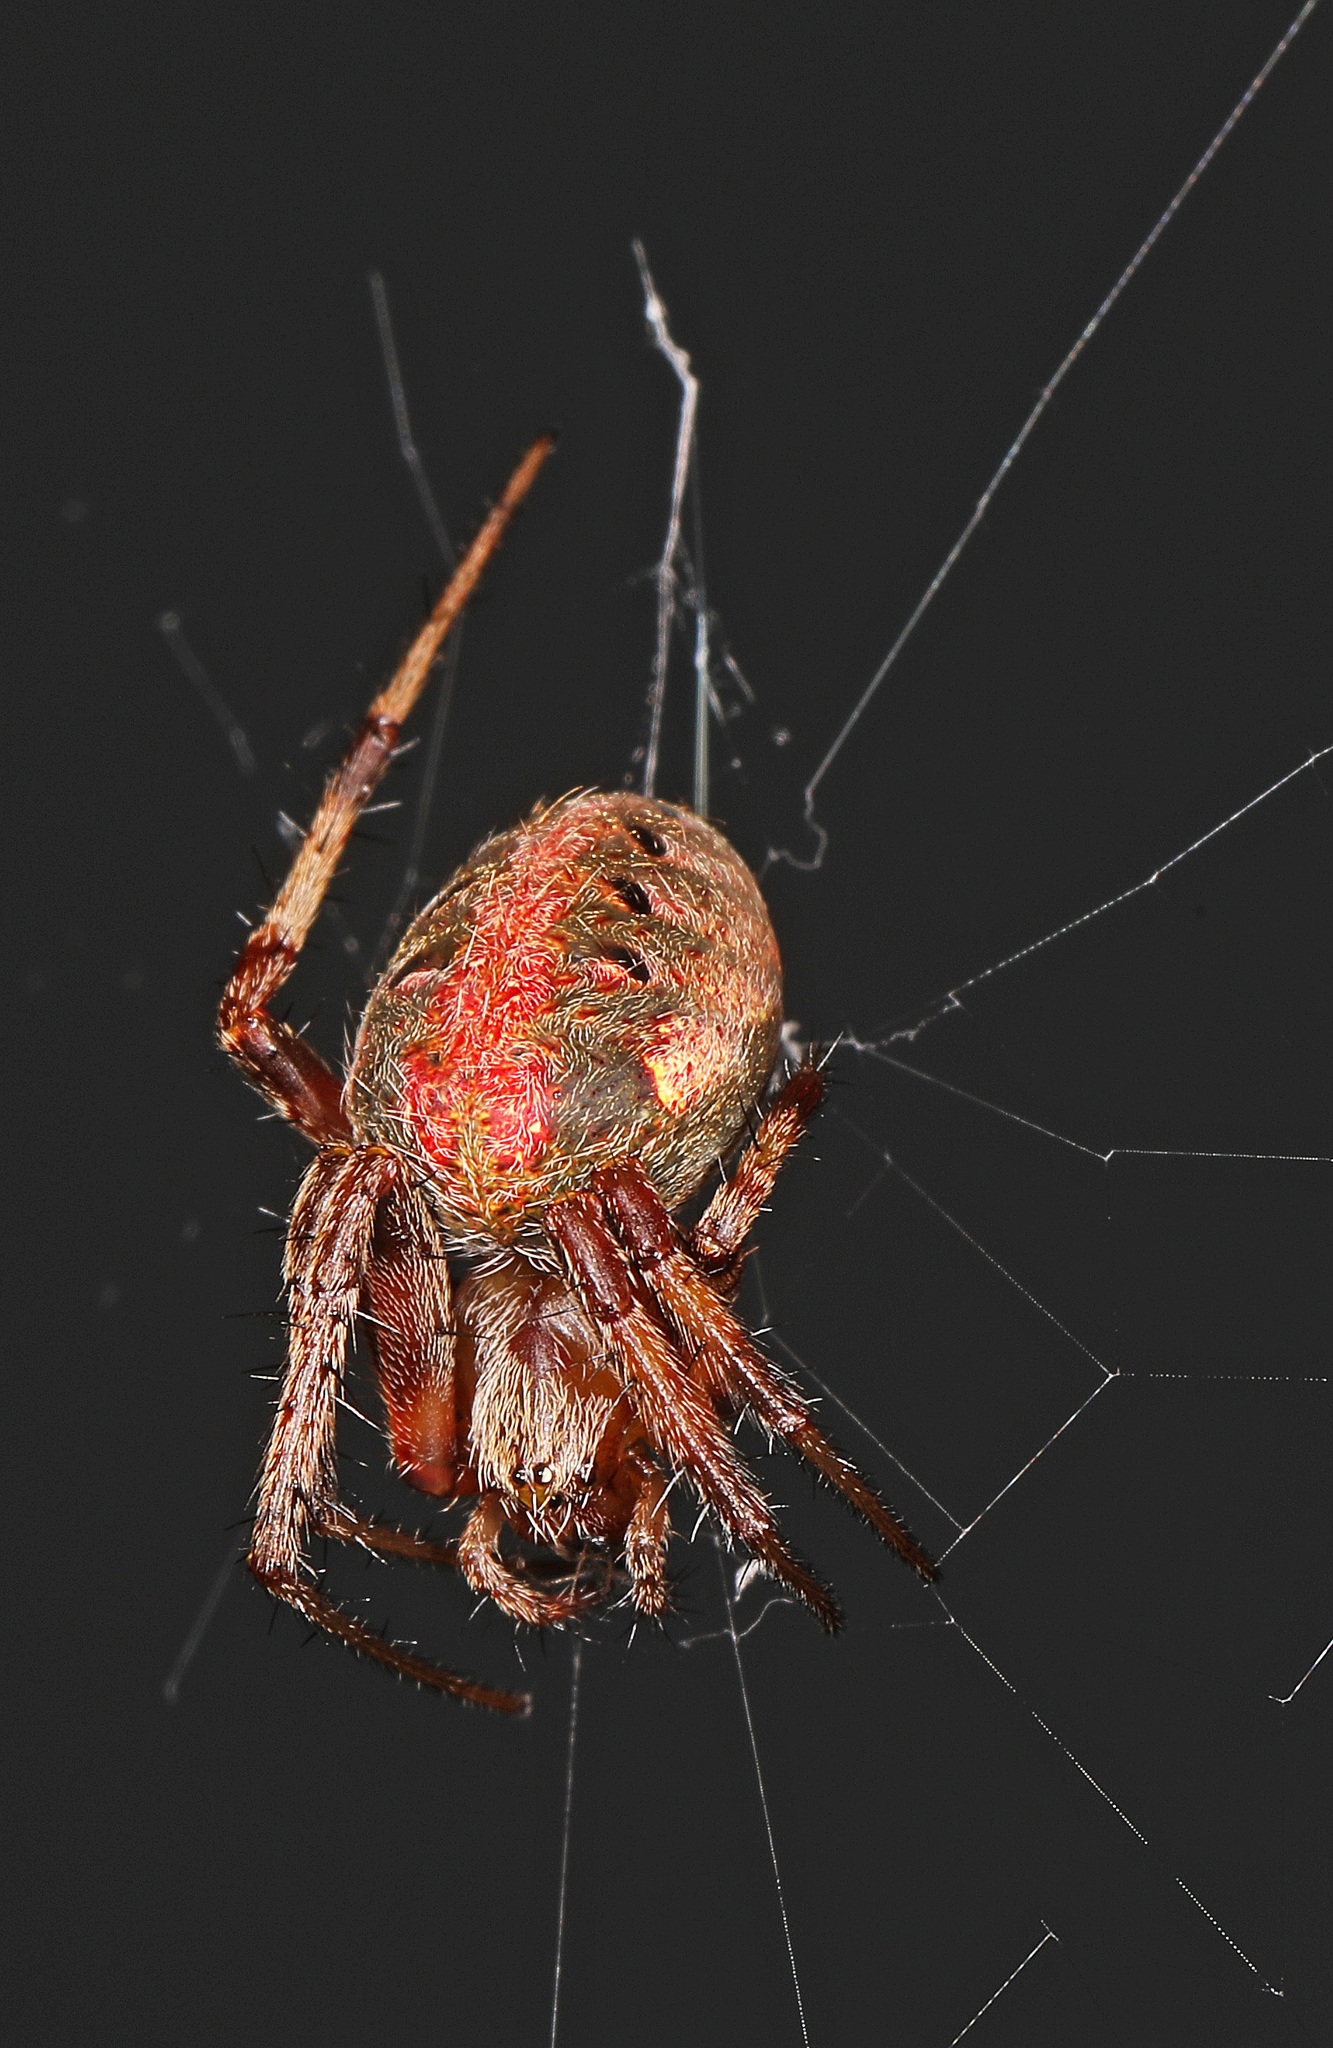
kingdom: Animalia
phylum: Arthropoda
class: Arachnida
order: Araneae
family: Araneidae
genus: Neoscona
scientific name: Neoscona arabesca
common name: Orb weavers
